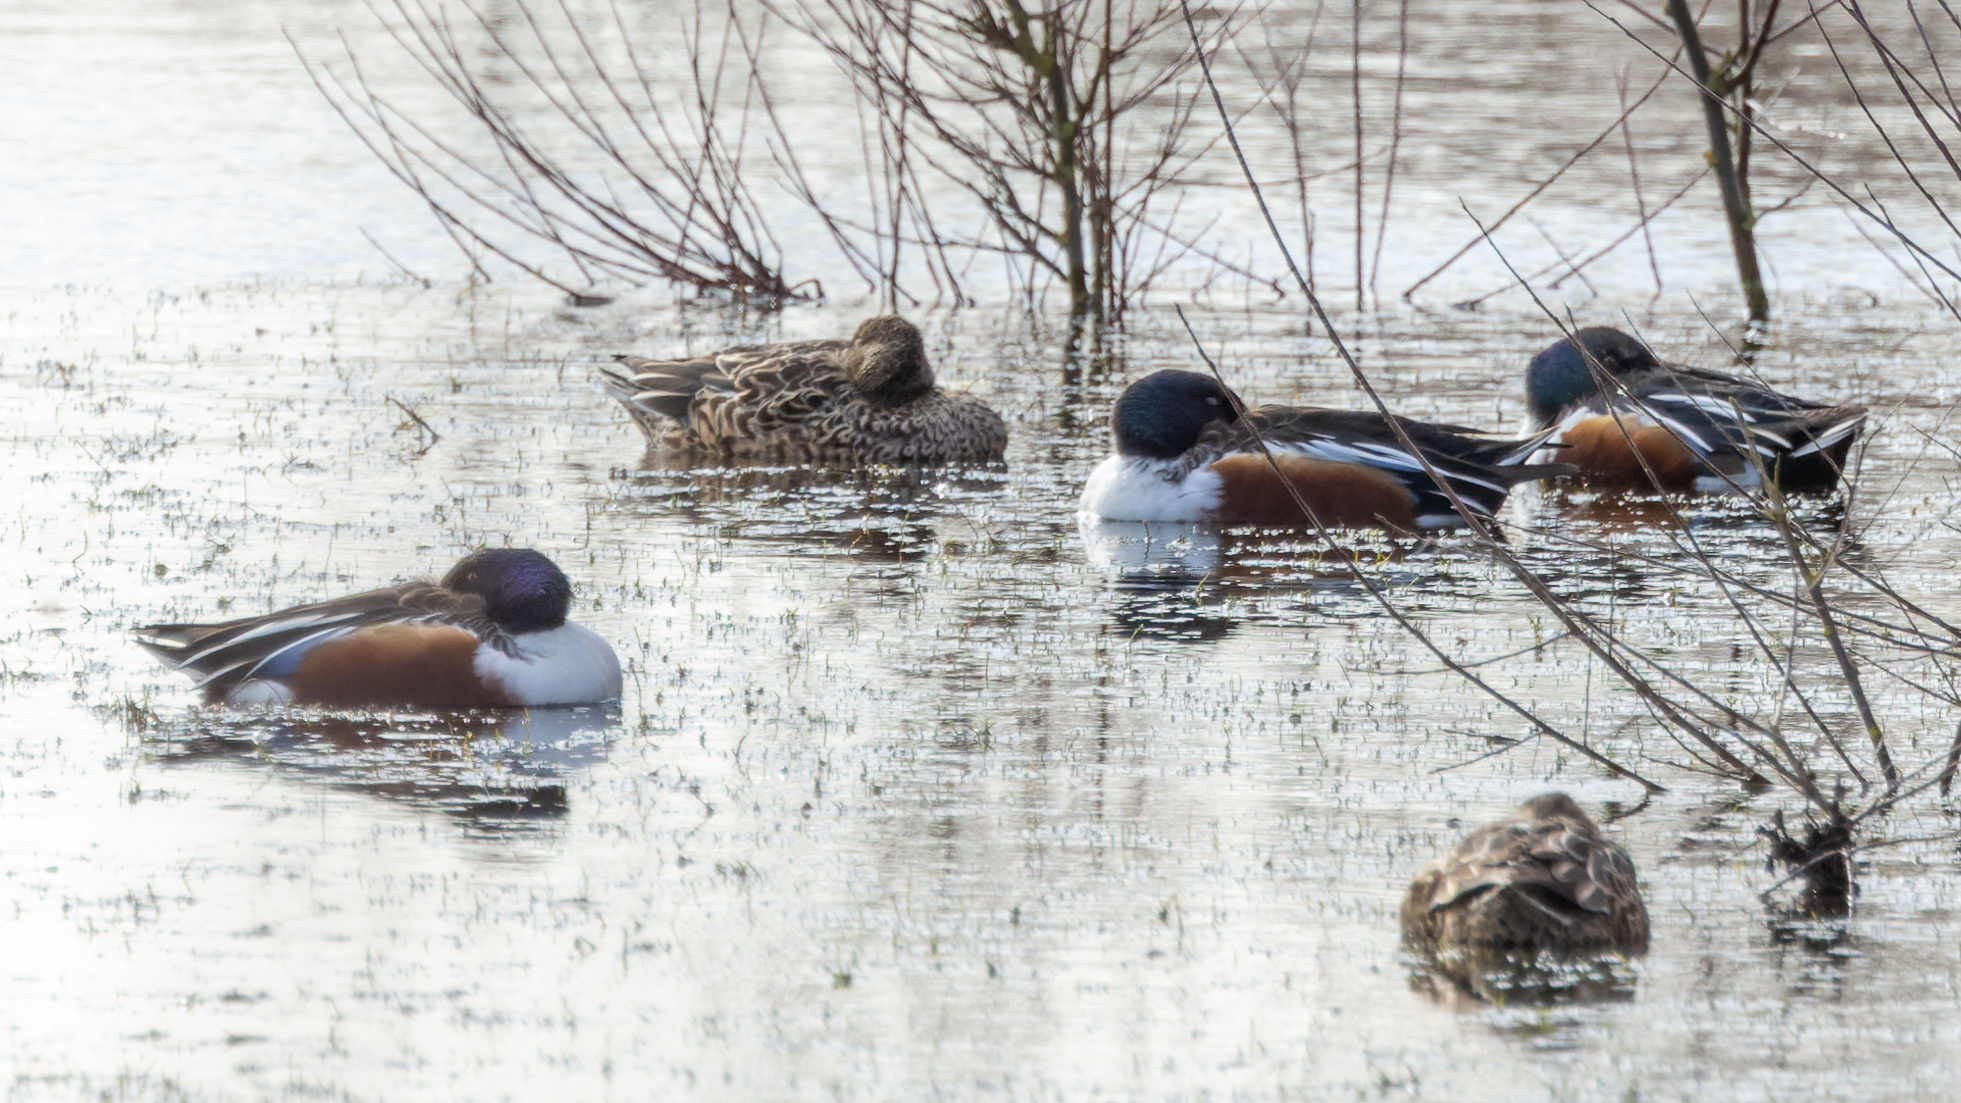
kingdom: Animalia
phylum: Chordata
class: Aves
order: Anseriformes
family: Anatidae
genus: Spatula
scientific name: Spatula clypeata
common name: Northern shoveler
